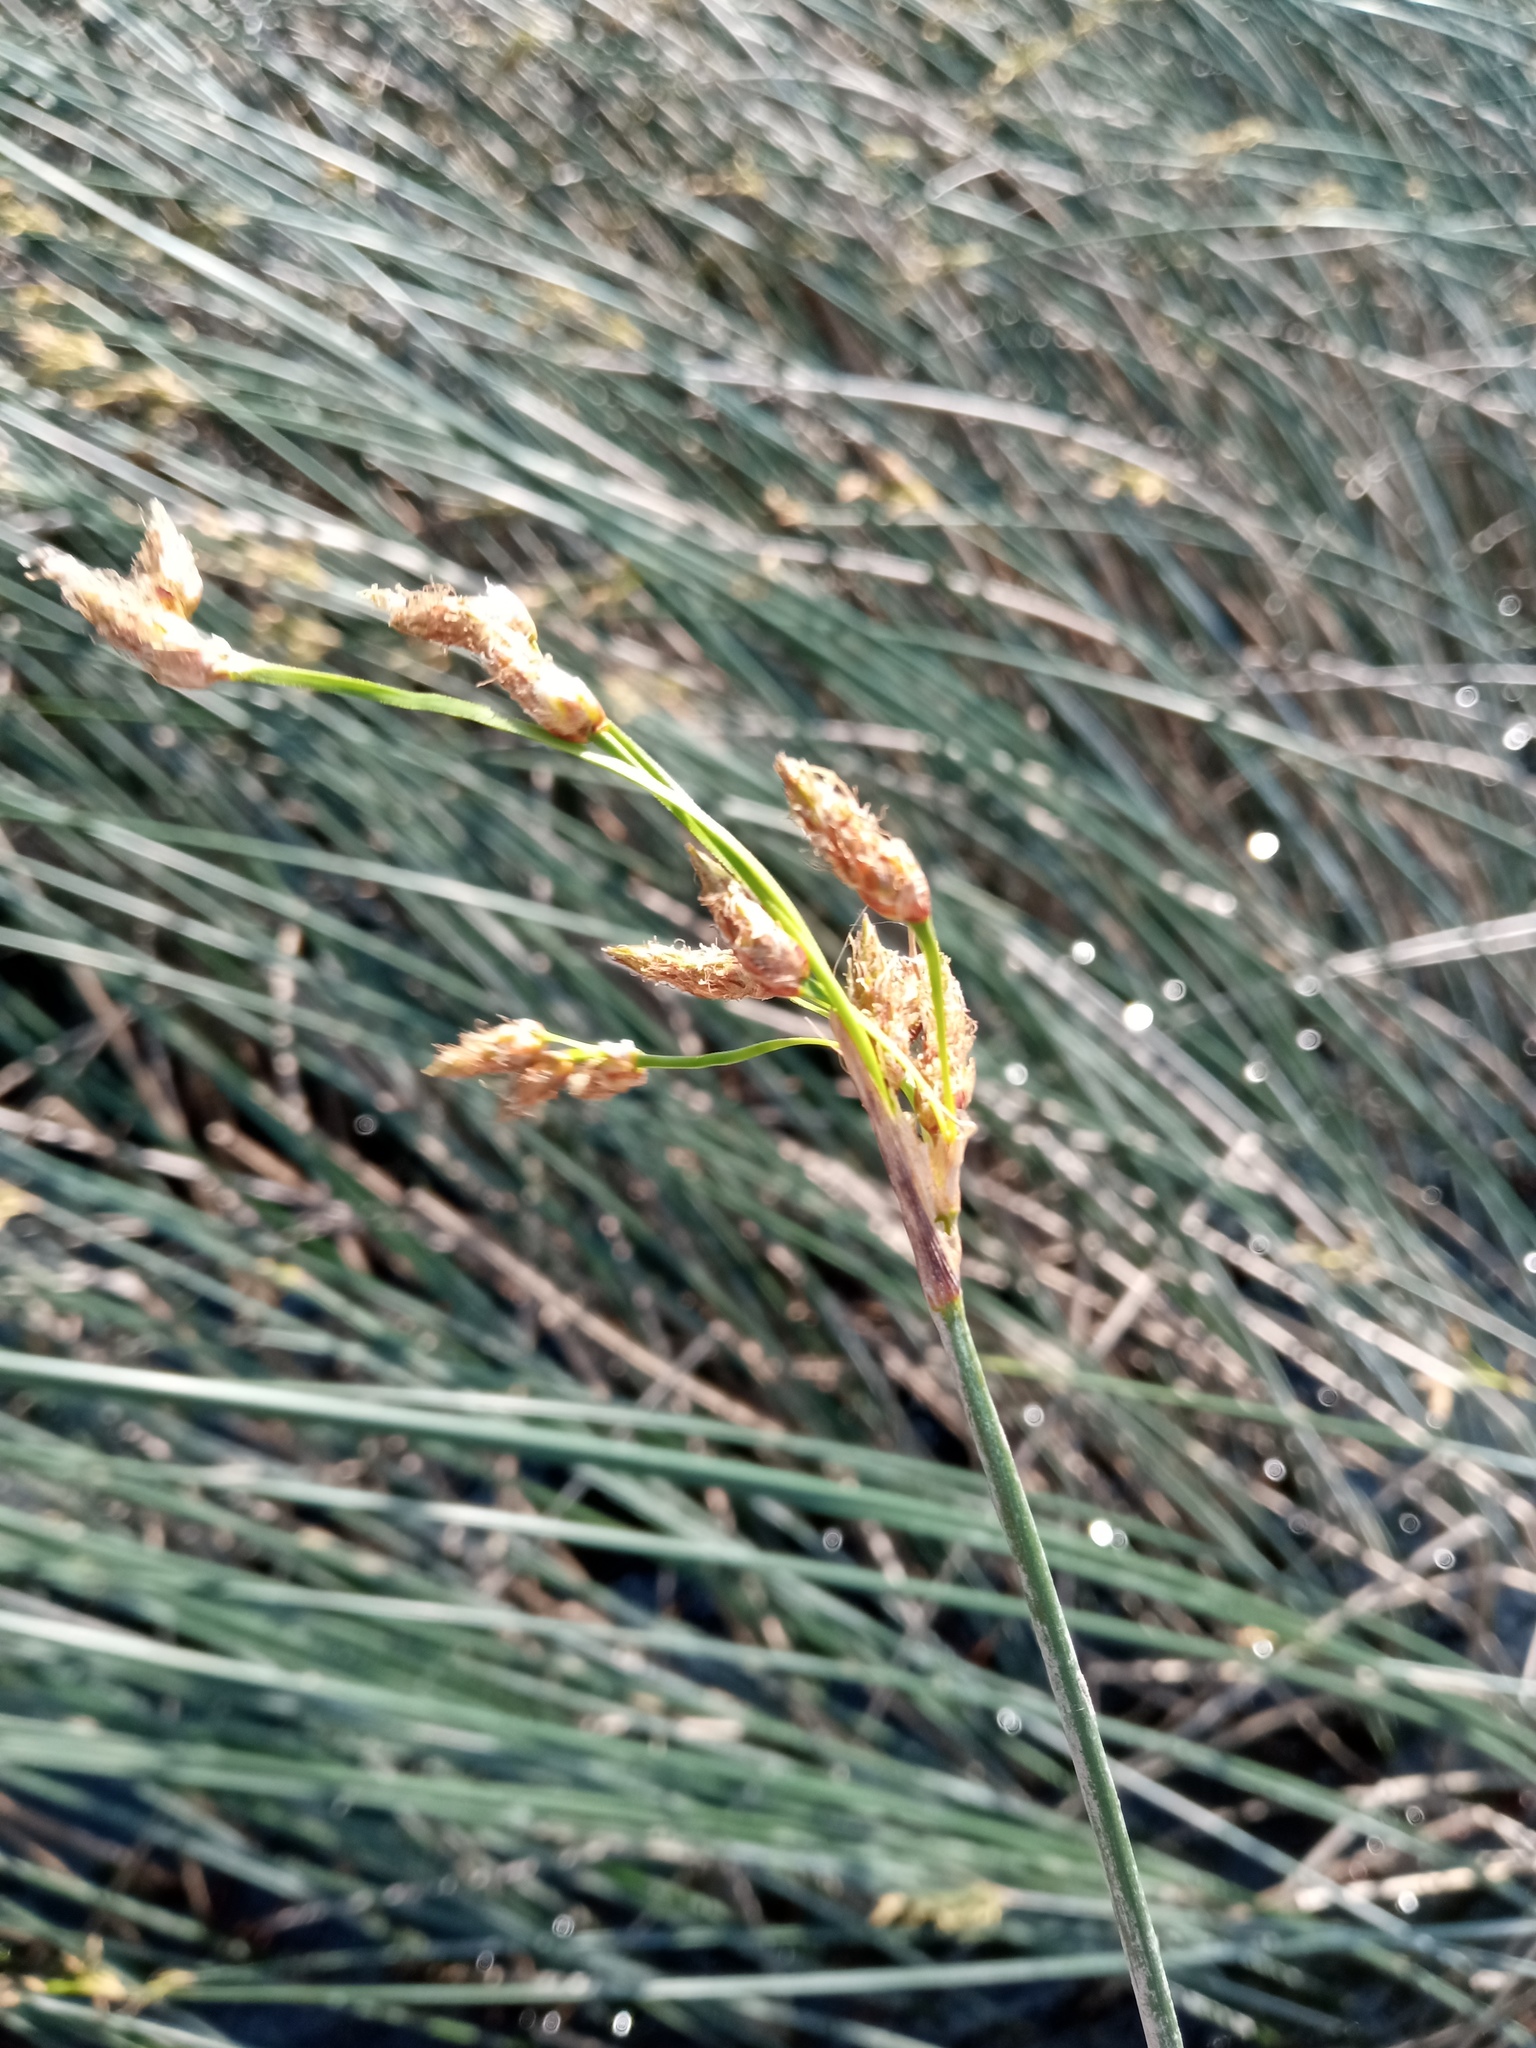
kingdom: Plantae
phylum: Tracheophyta
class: Liliopsida
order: Poales
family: Cyperaceae
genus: Schoenoplectus
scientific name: Schoenoplectus lacustris
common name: Common club-rush
